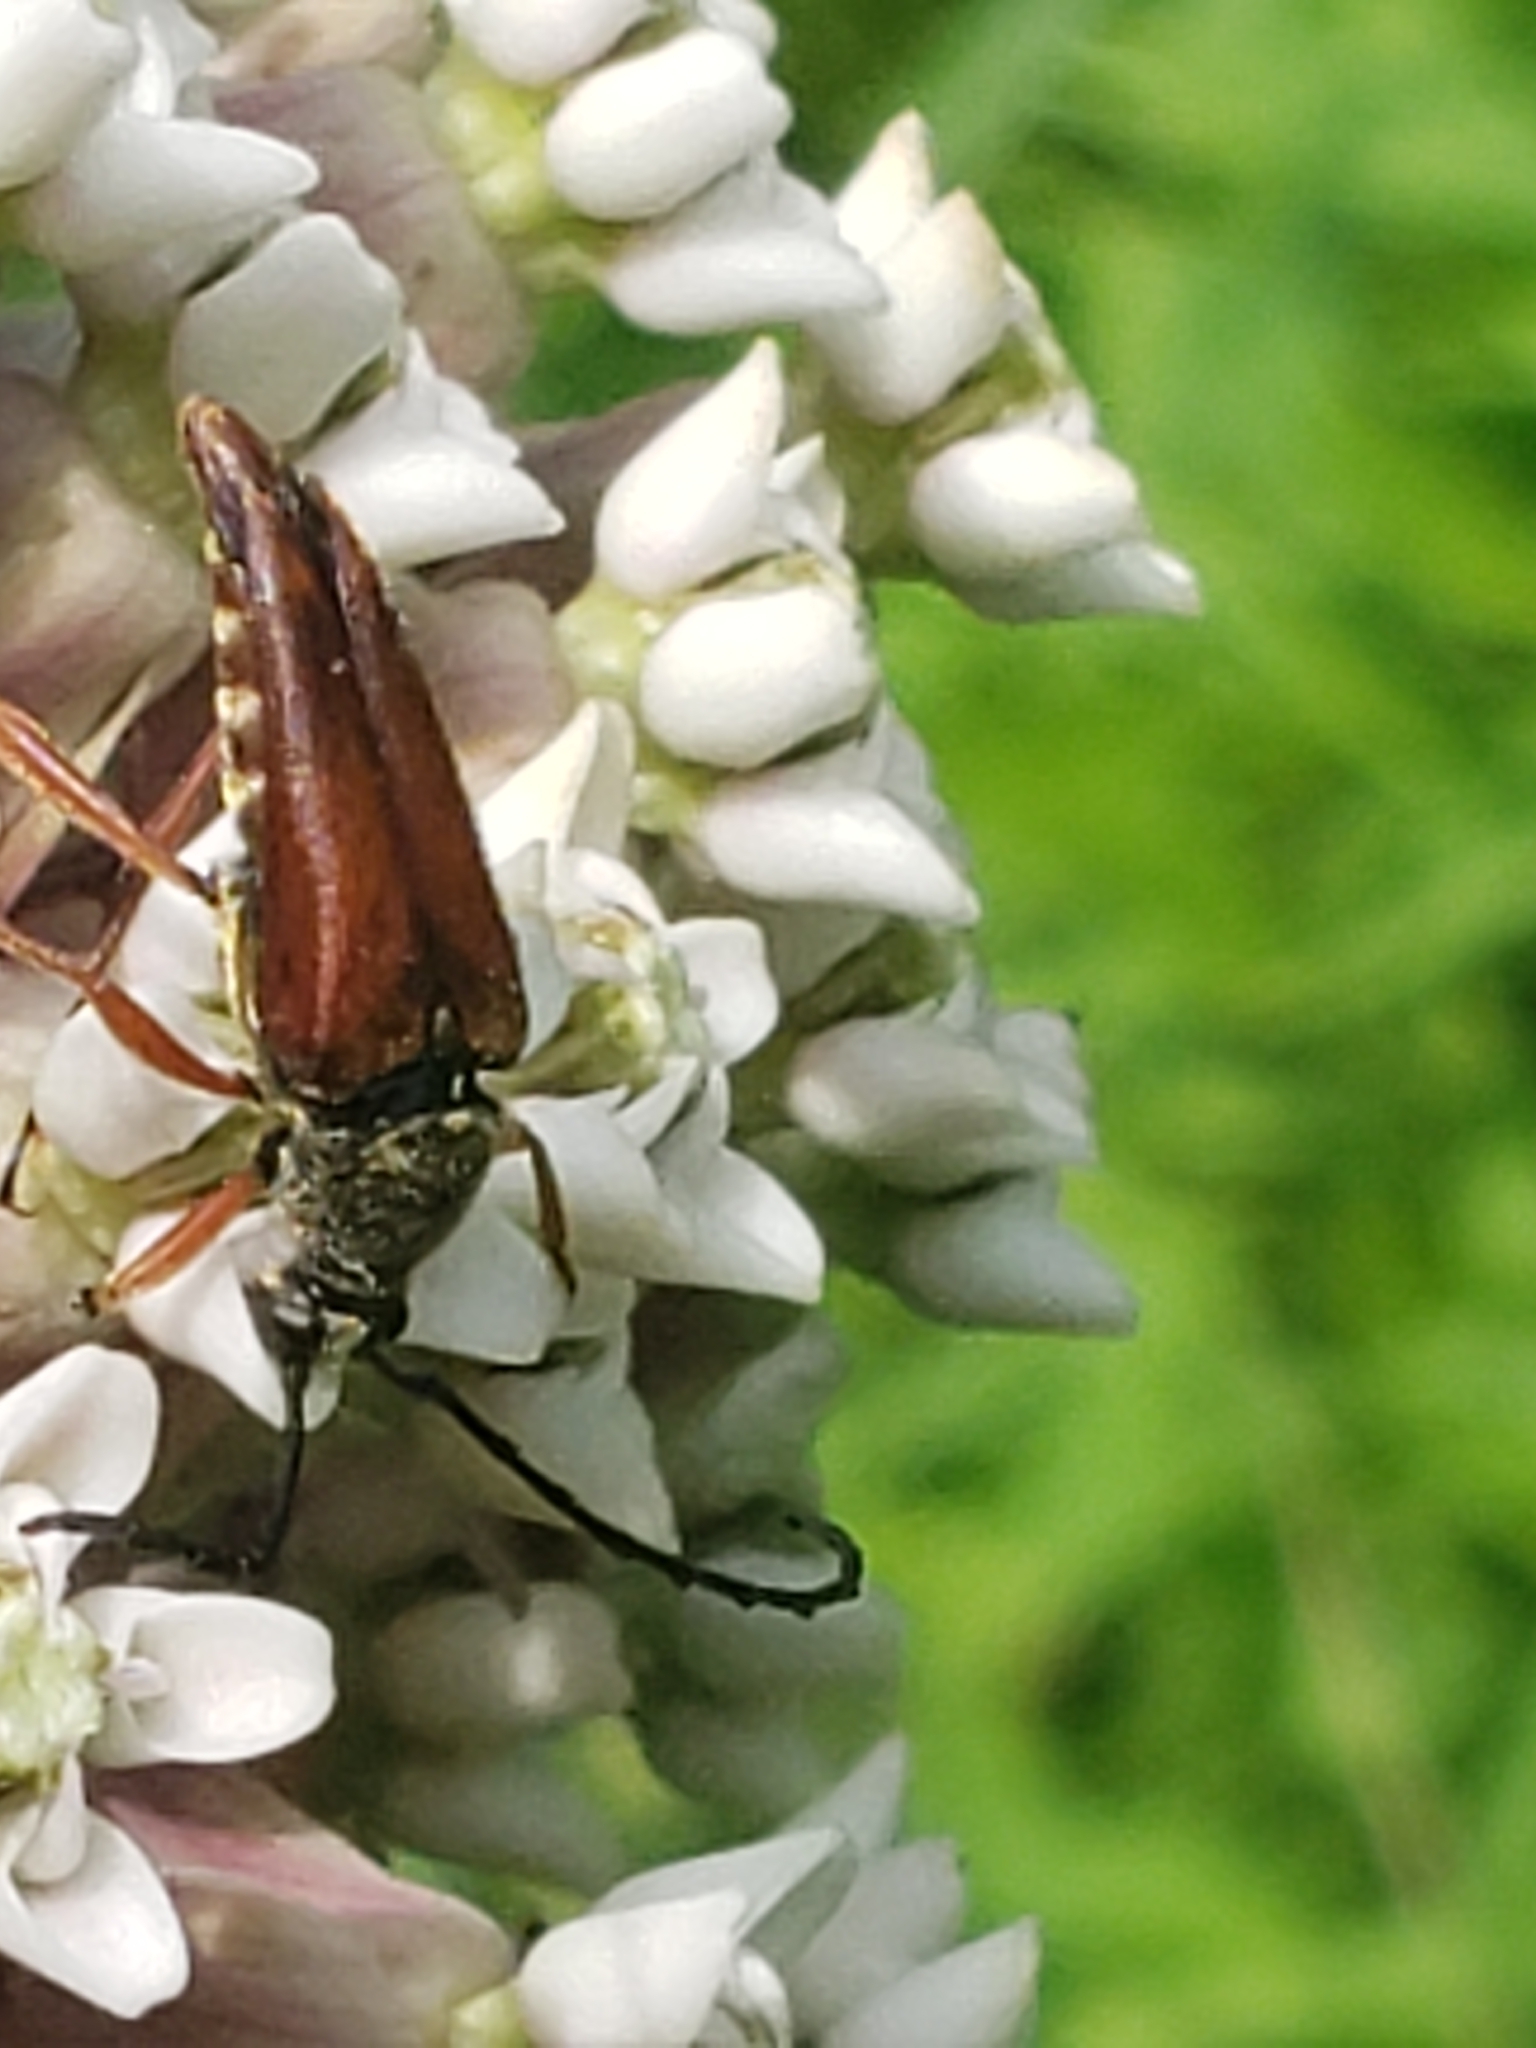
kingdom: Animalia
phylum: Arthropoda
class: Insecta
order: Coleoptera
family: Cerambycidae
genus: Typocerus
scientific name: Typocerus acuticauda
